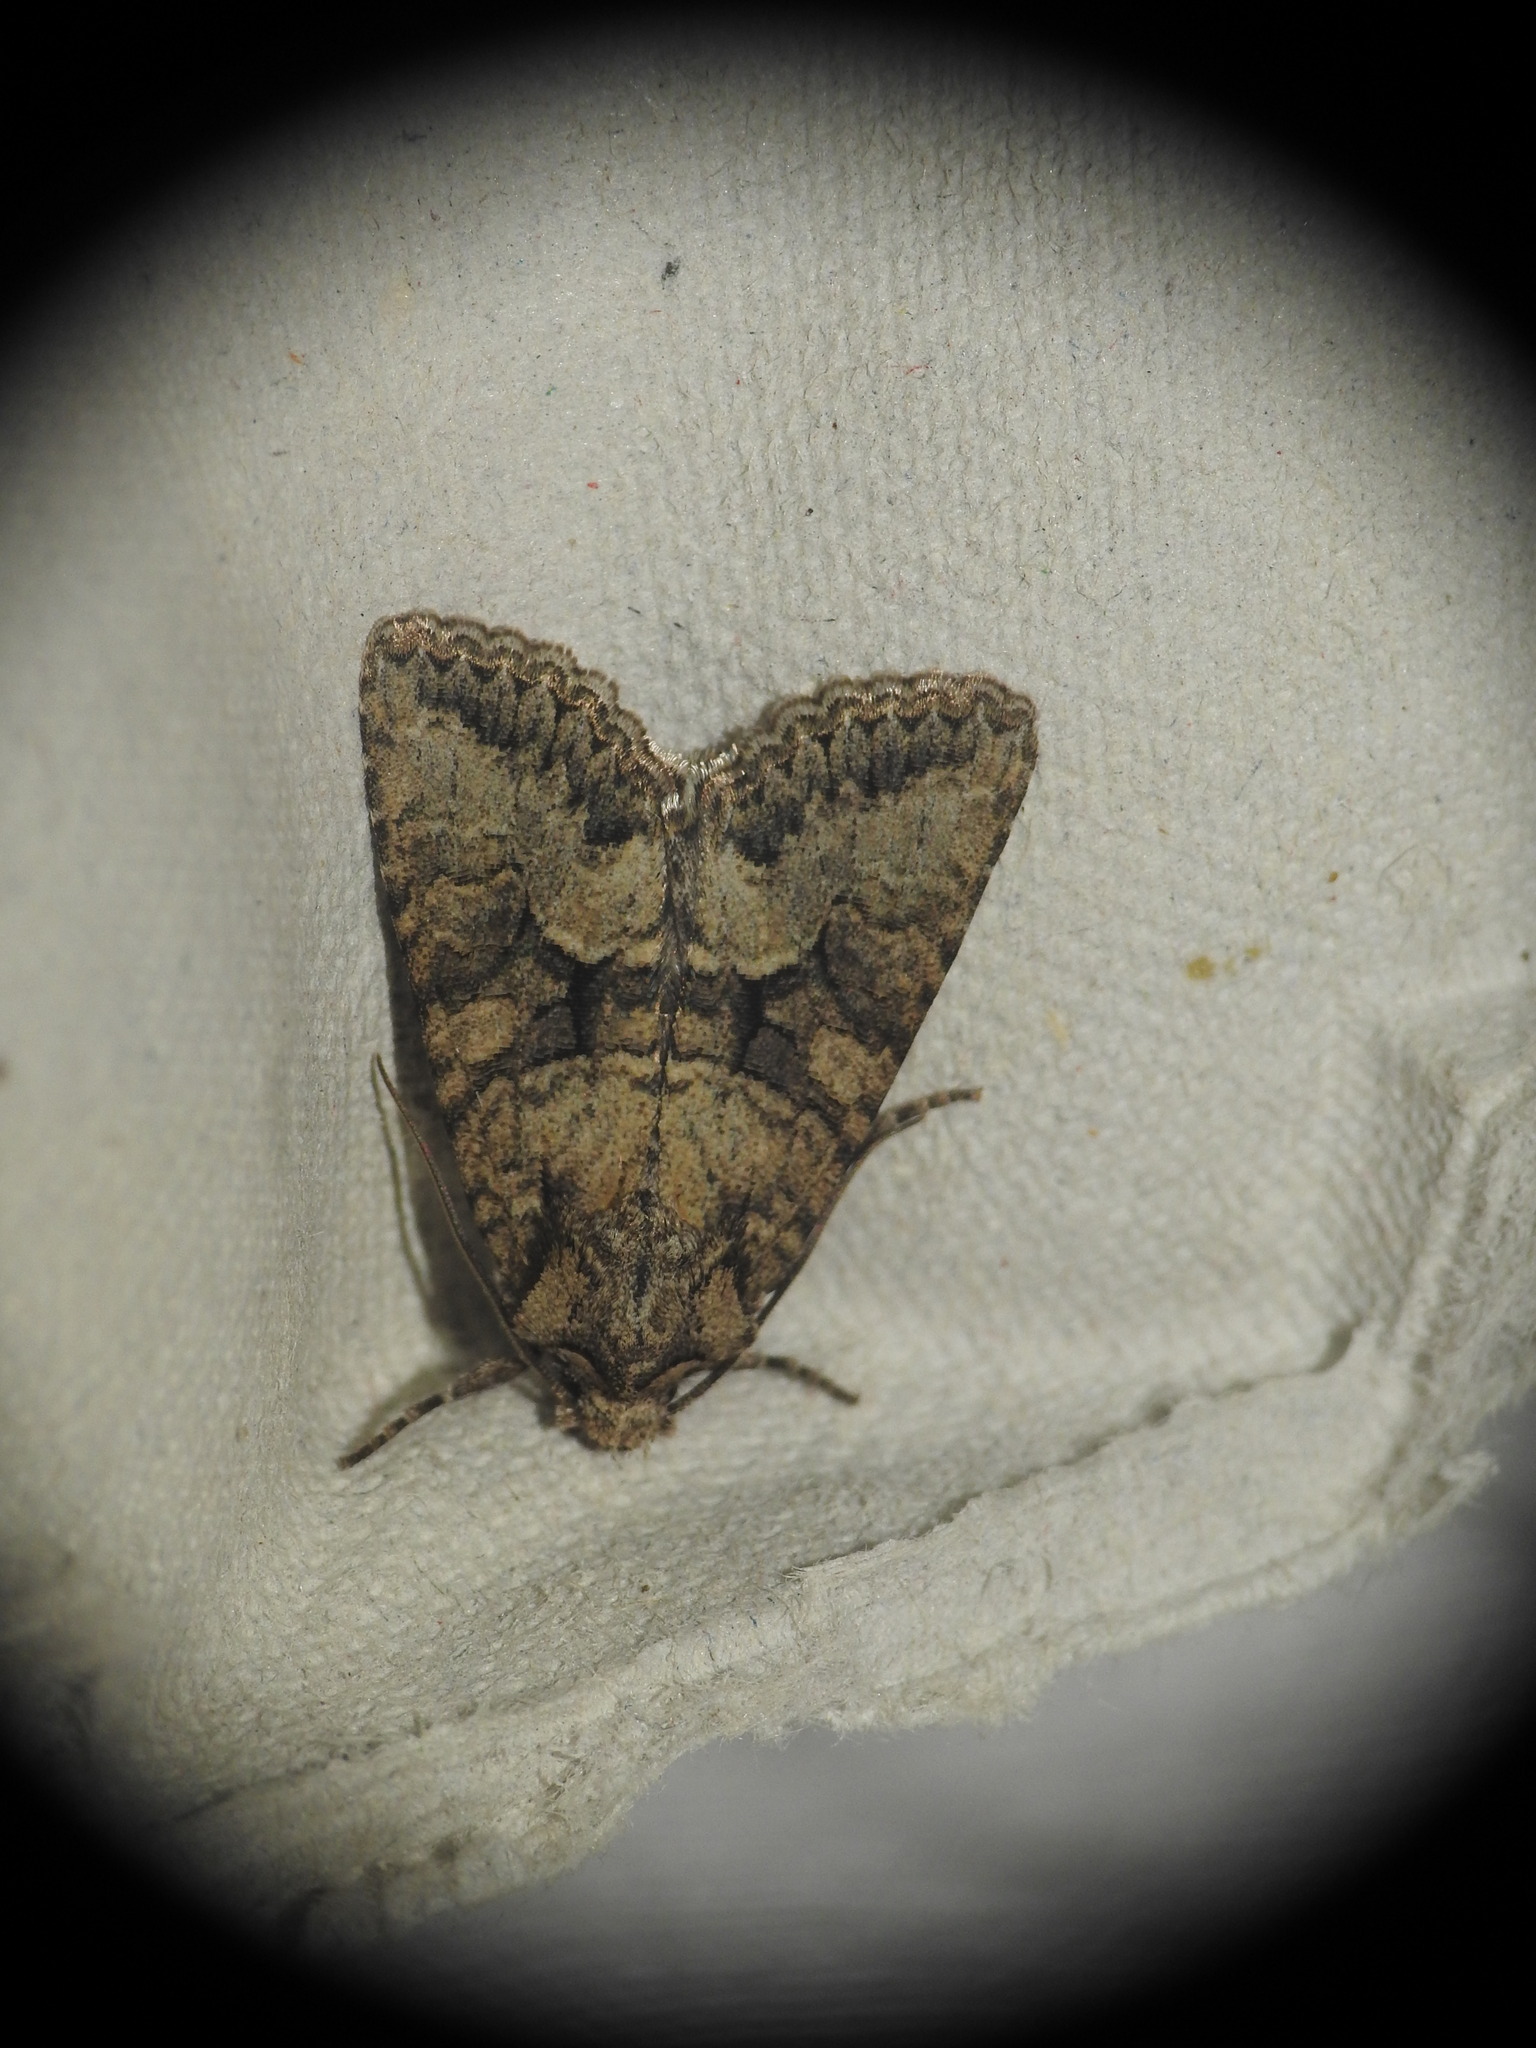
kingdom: Animalia
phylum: Arthropoda
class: Insecta
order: Lepidoptera
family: Noctuidae
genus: Dryobotodes
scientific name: Dryobotodes monochroma
